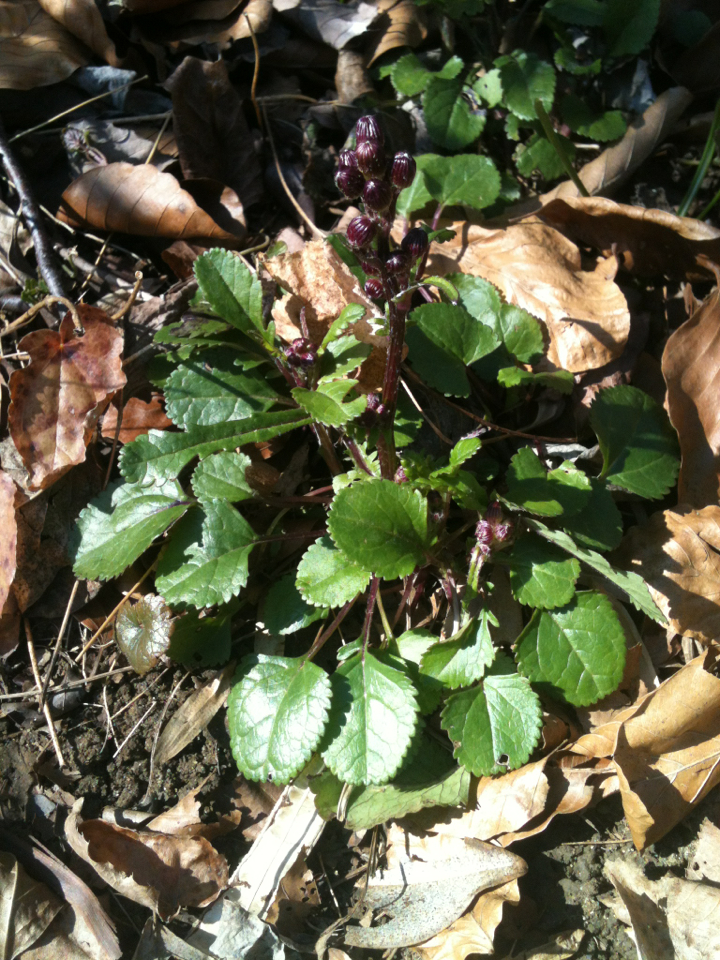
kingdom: Plantae
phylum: Tracheophyta
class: Magnoliopsida
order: Asterales
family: Asteraceae
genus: Packera
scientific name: Packera aurea
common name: Golden groundsel
